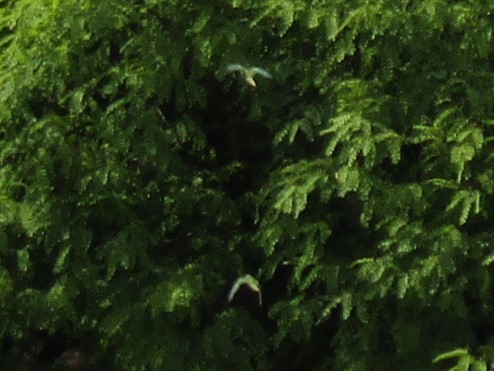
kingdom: Animalia
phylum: Chordata
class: Aves
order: Psittaciformes
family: Psittacidae
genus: Pyrrhura
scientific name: Pyrrhura frontalis
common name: Maroon-bellied parakeet
